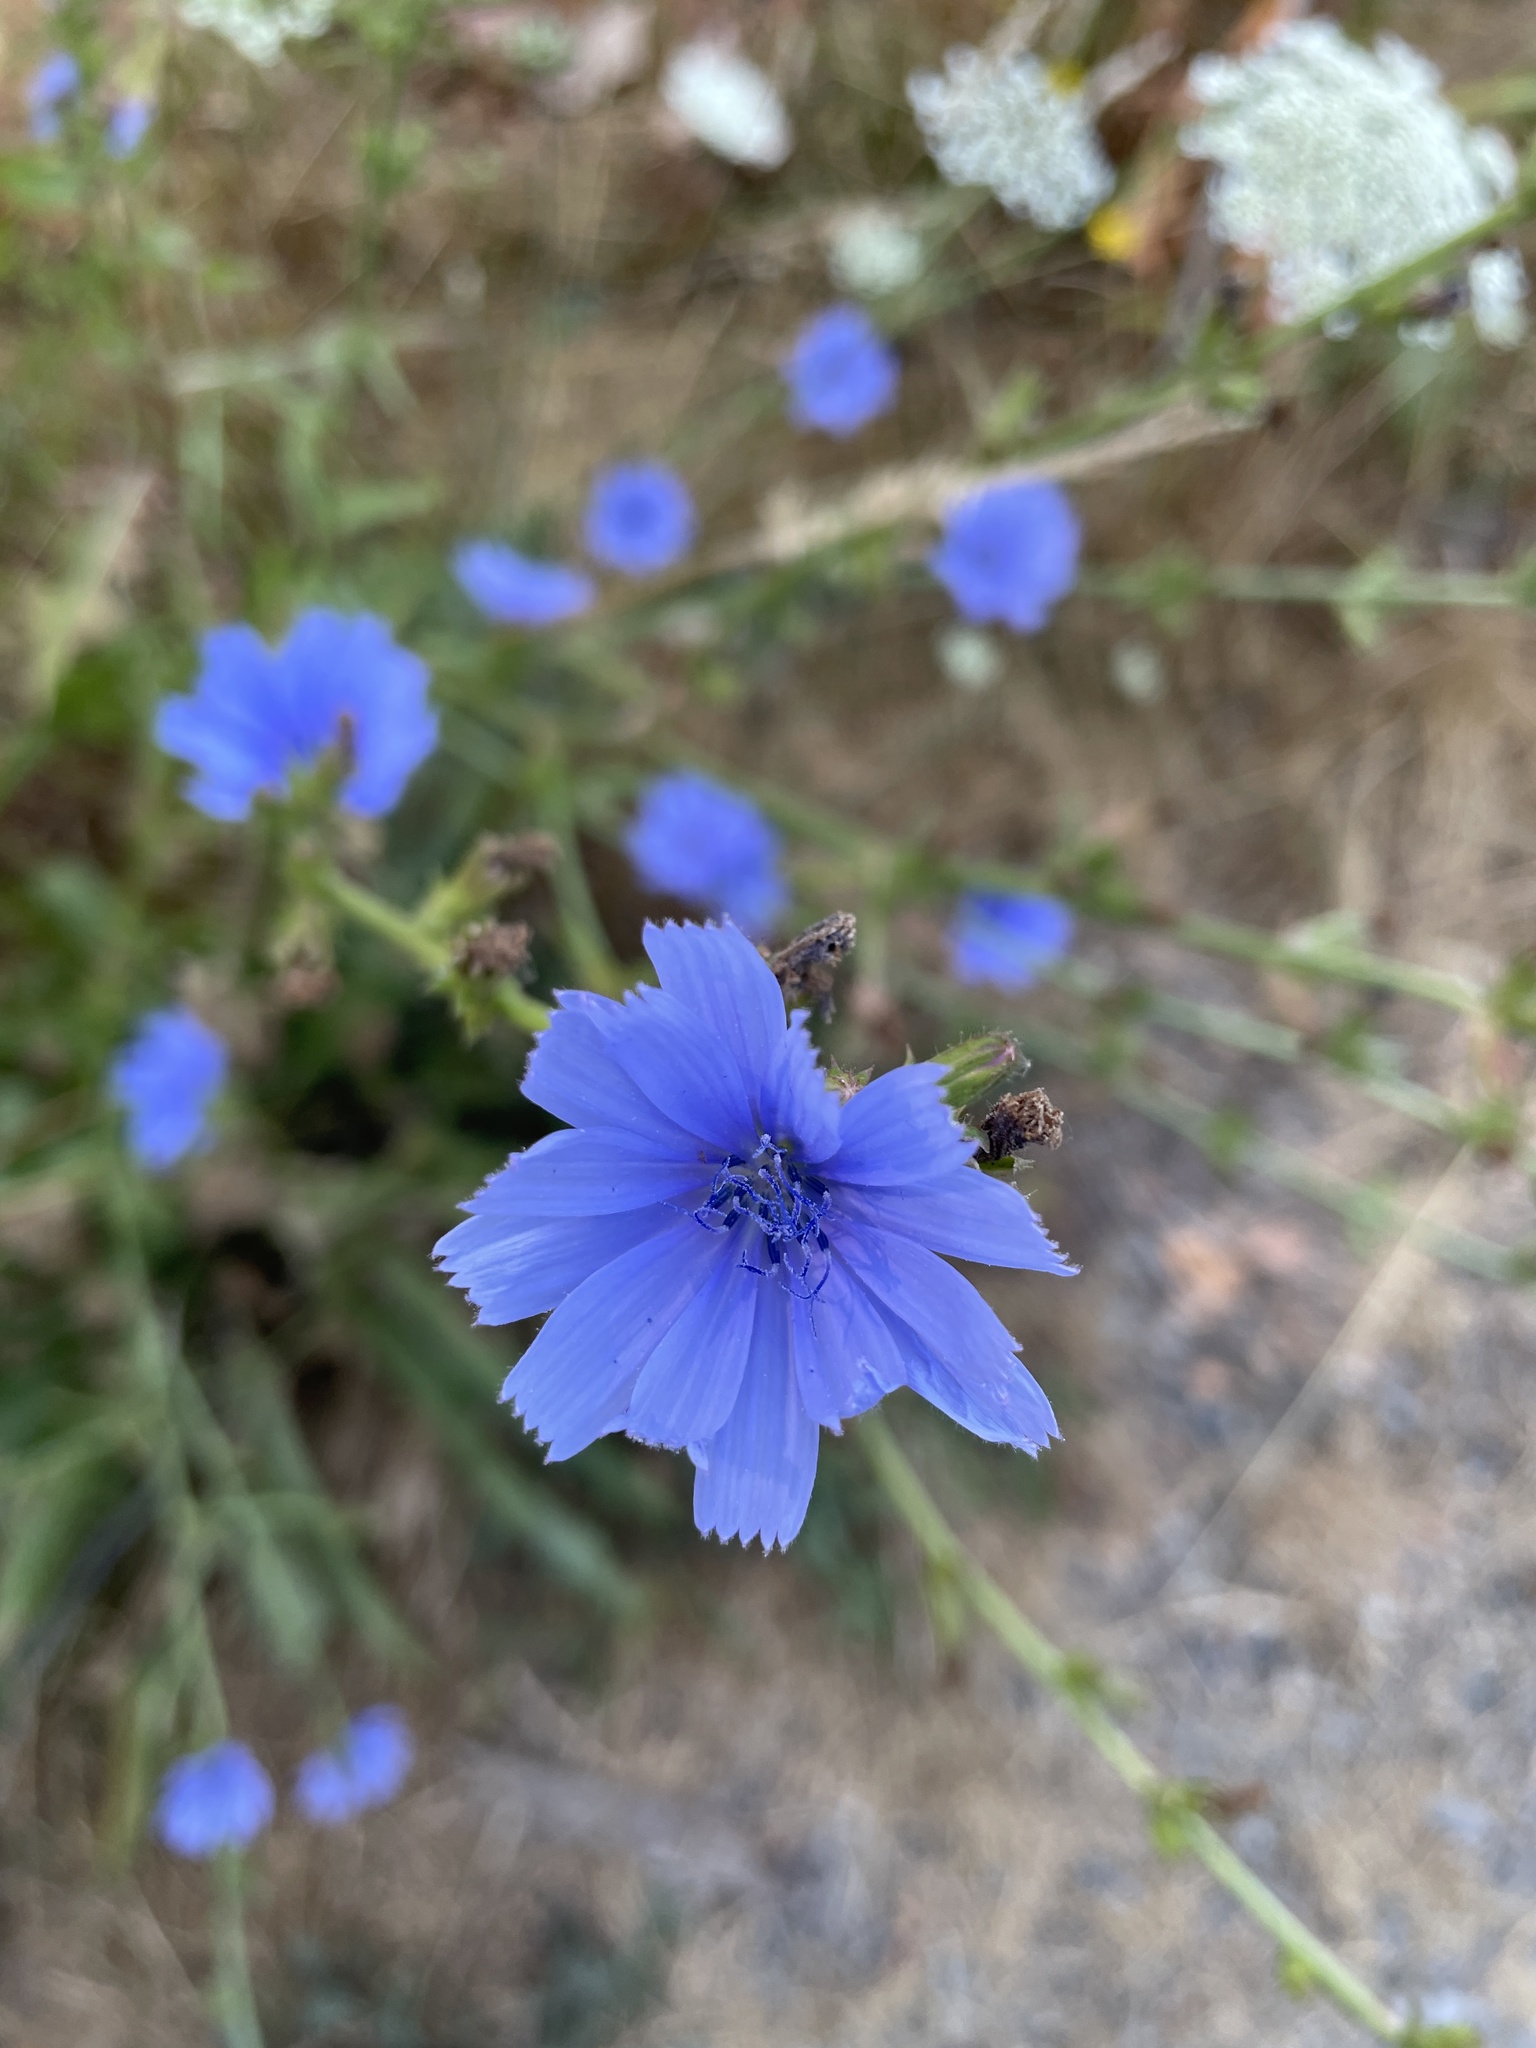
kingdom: Plantae
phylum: Tracheophyta
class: Magnoliopsida
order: Asterales
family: Asteraceae
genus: Cichorium
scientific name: Cichorium intybus
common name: Chicory
